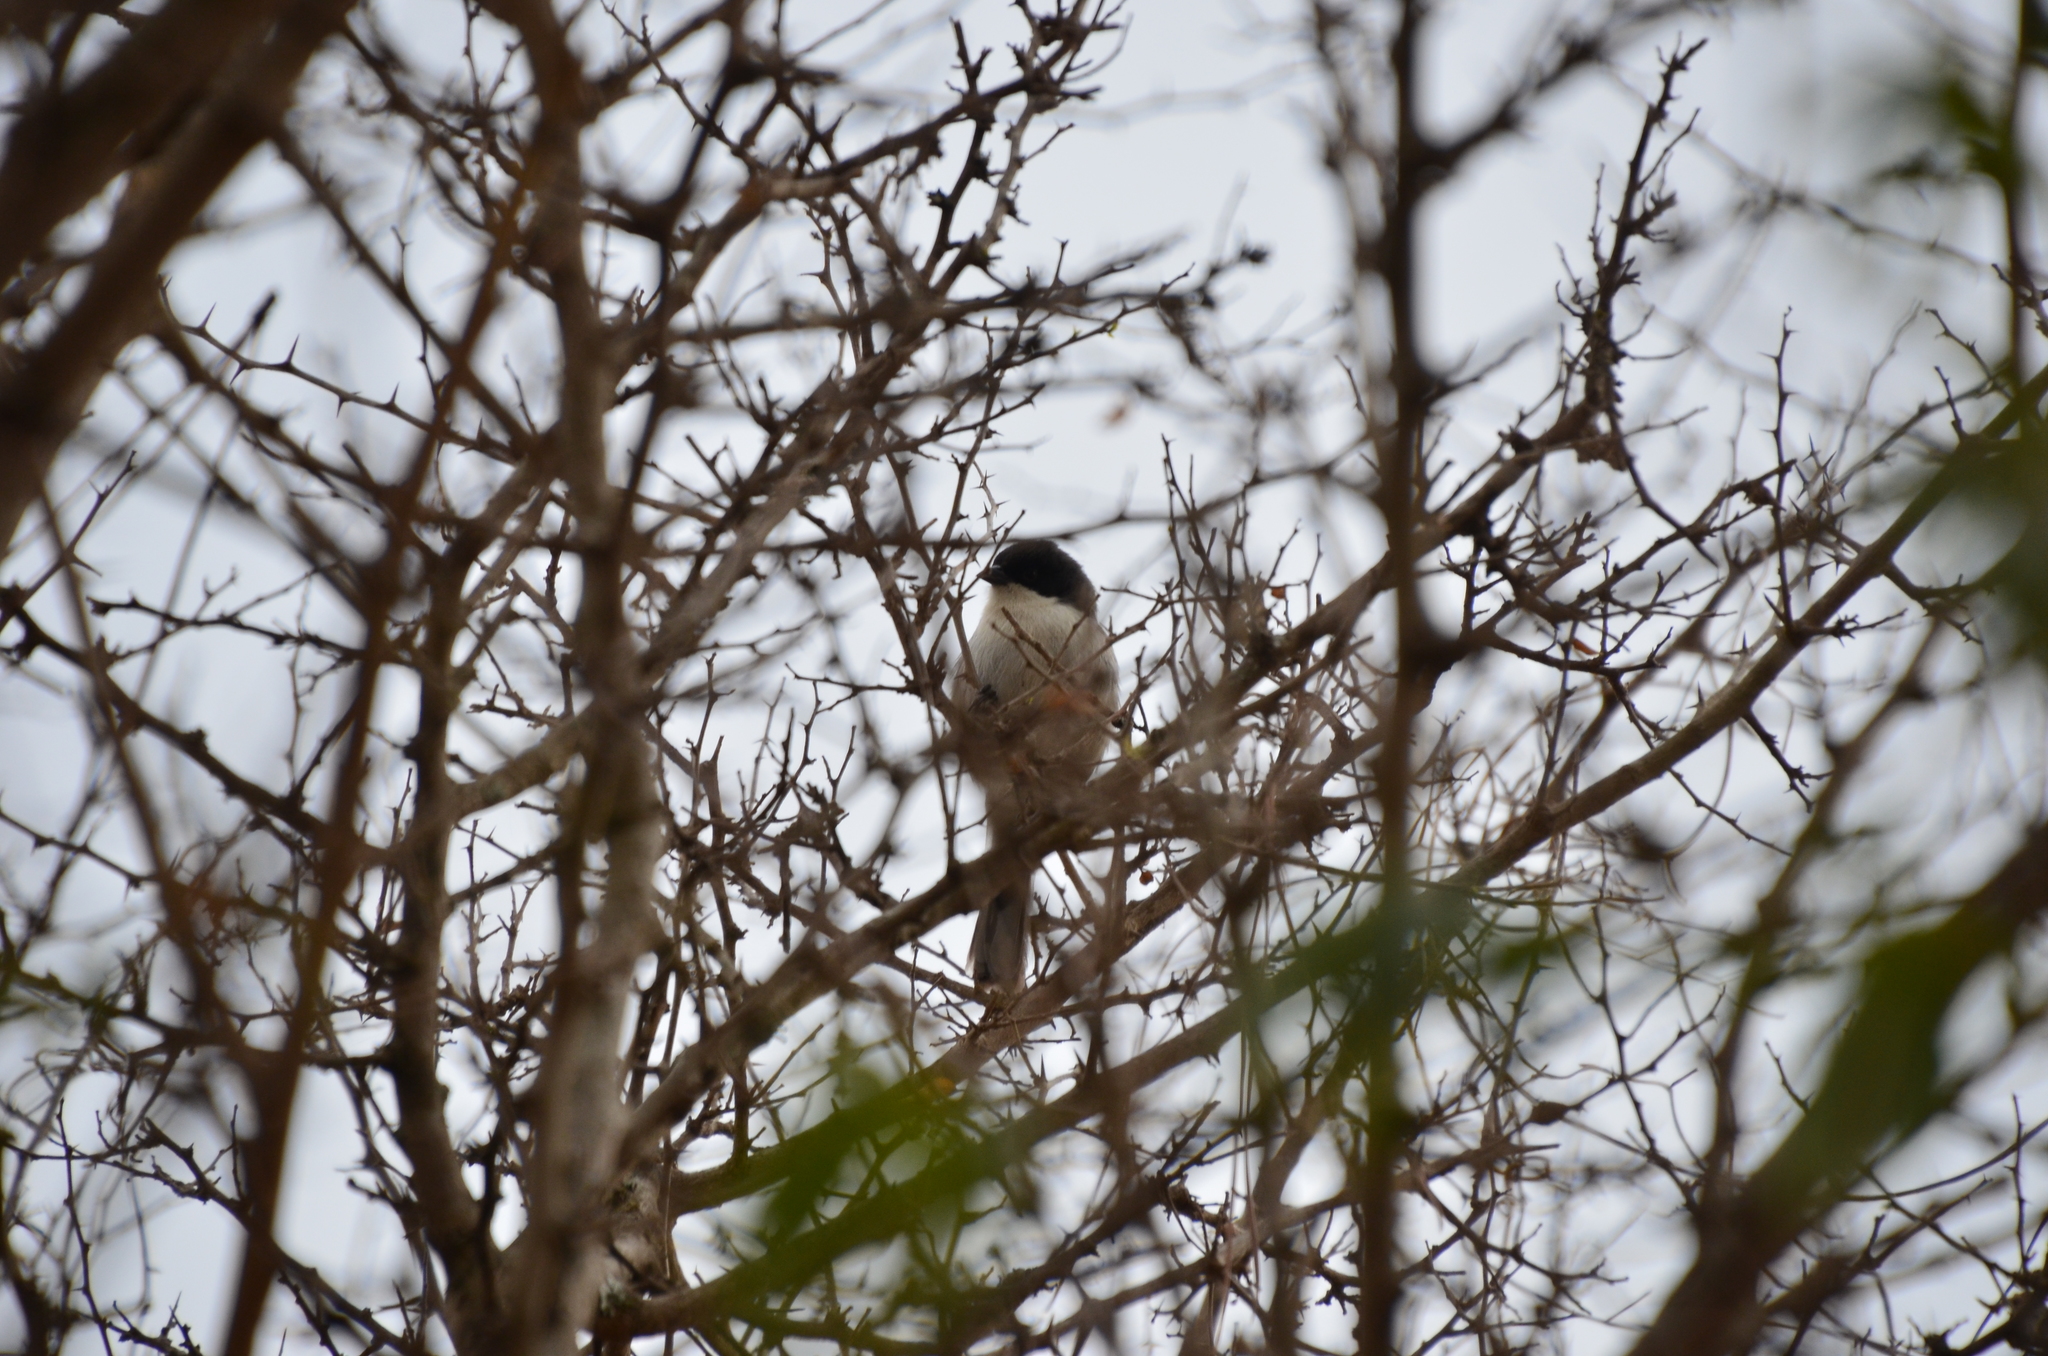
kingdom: Animalia
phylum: Chordata
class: Aves
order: Passeriformes
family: Thraupidae
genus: Microspingus
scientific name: Microspingus melanoleucus
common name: Black-capped warbling-finch
